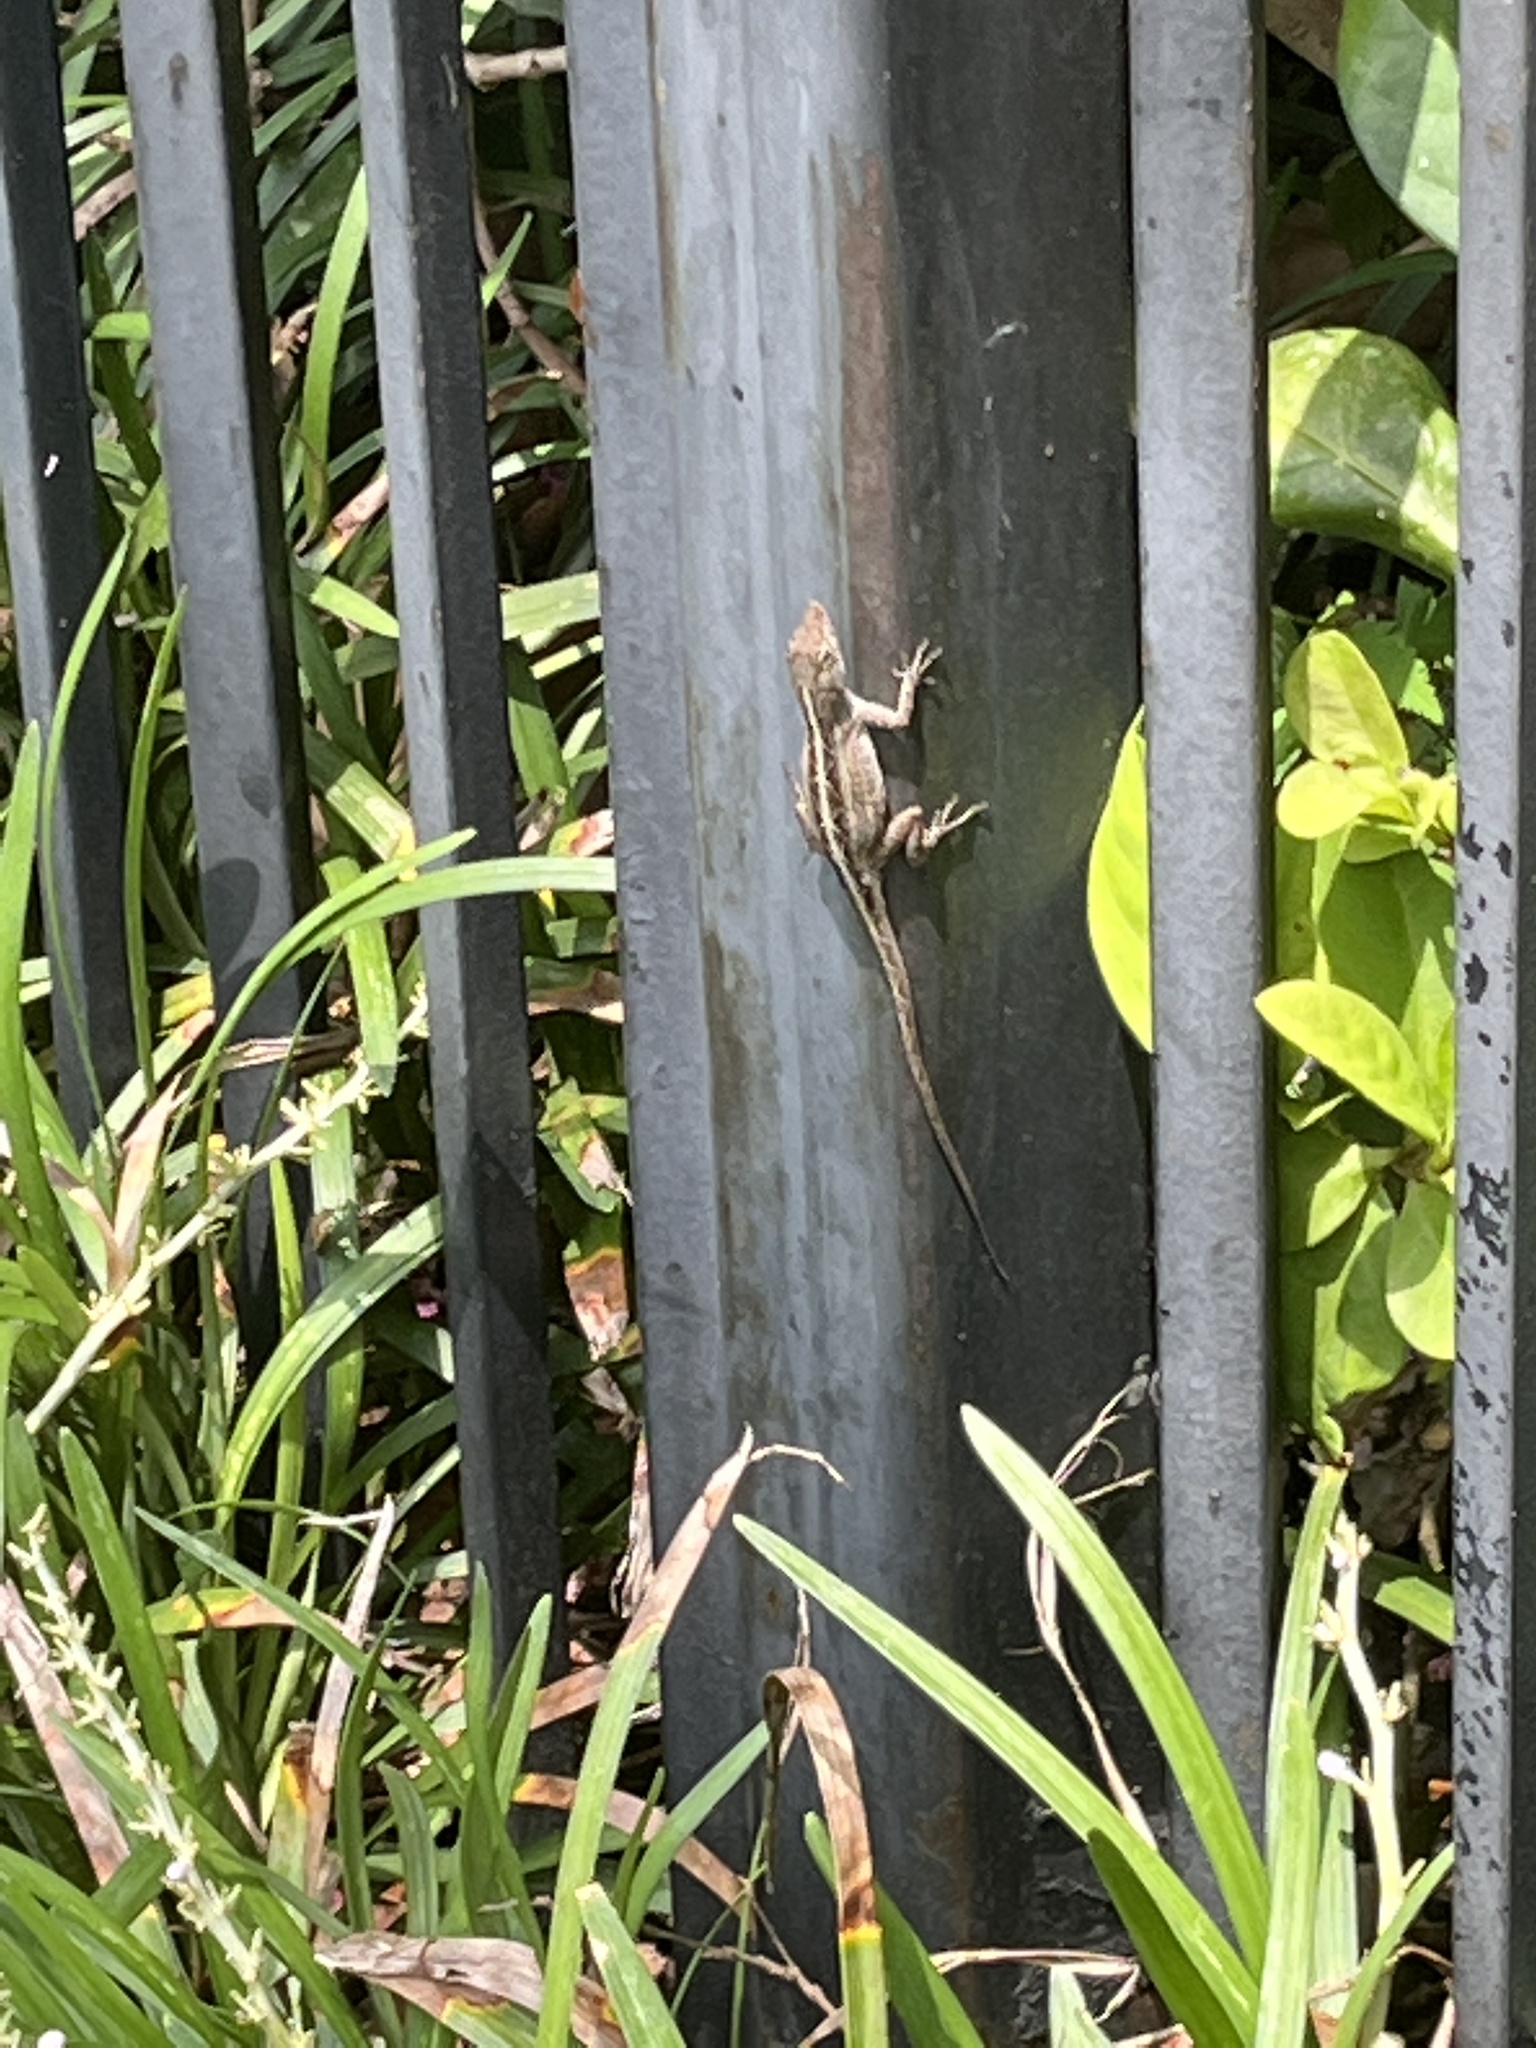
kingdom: Animalia
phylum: Chordata
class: Squamata
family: Dactyloidae
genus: Anolis
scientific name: Anolis sagrei
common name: Brown anole
